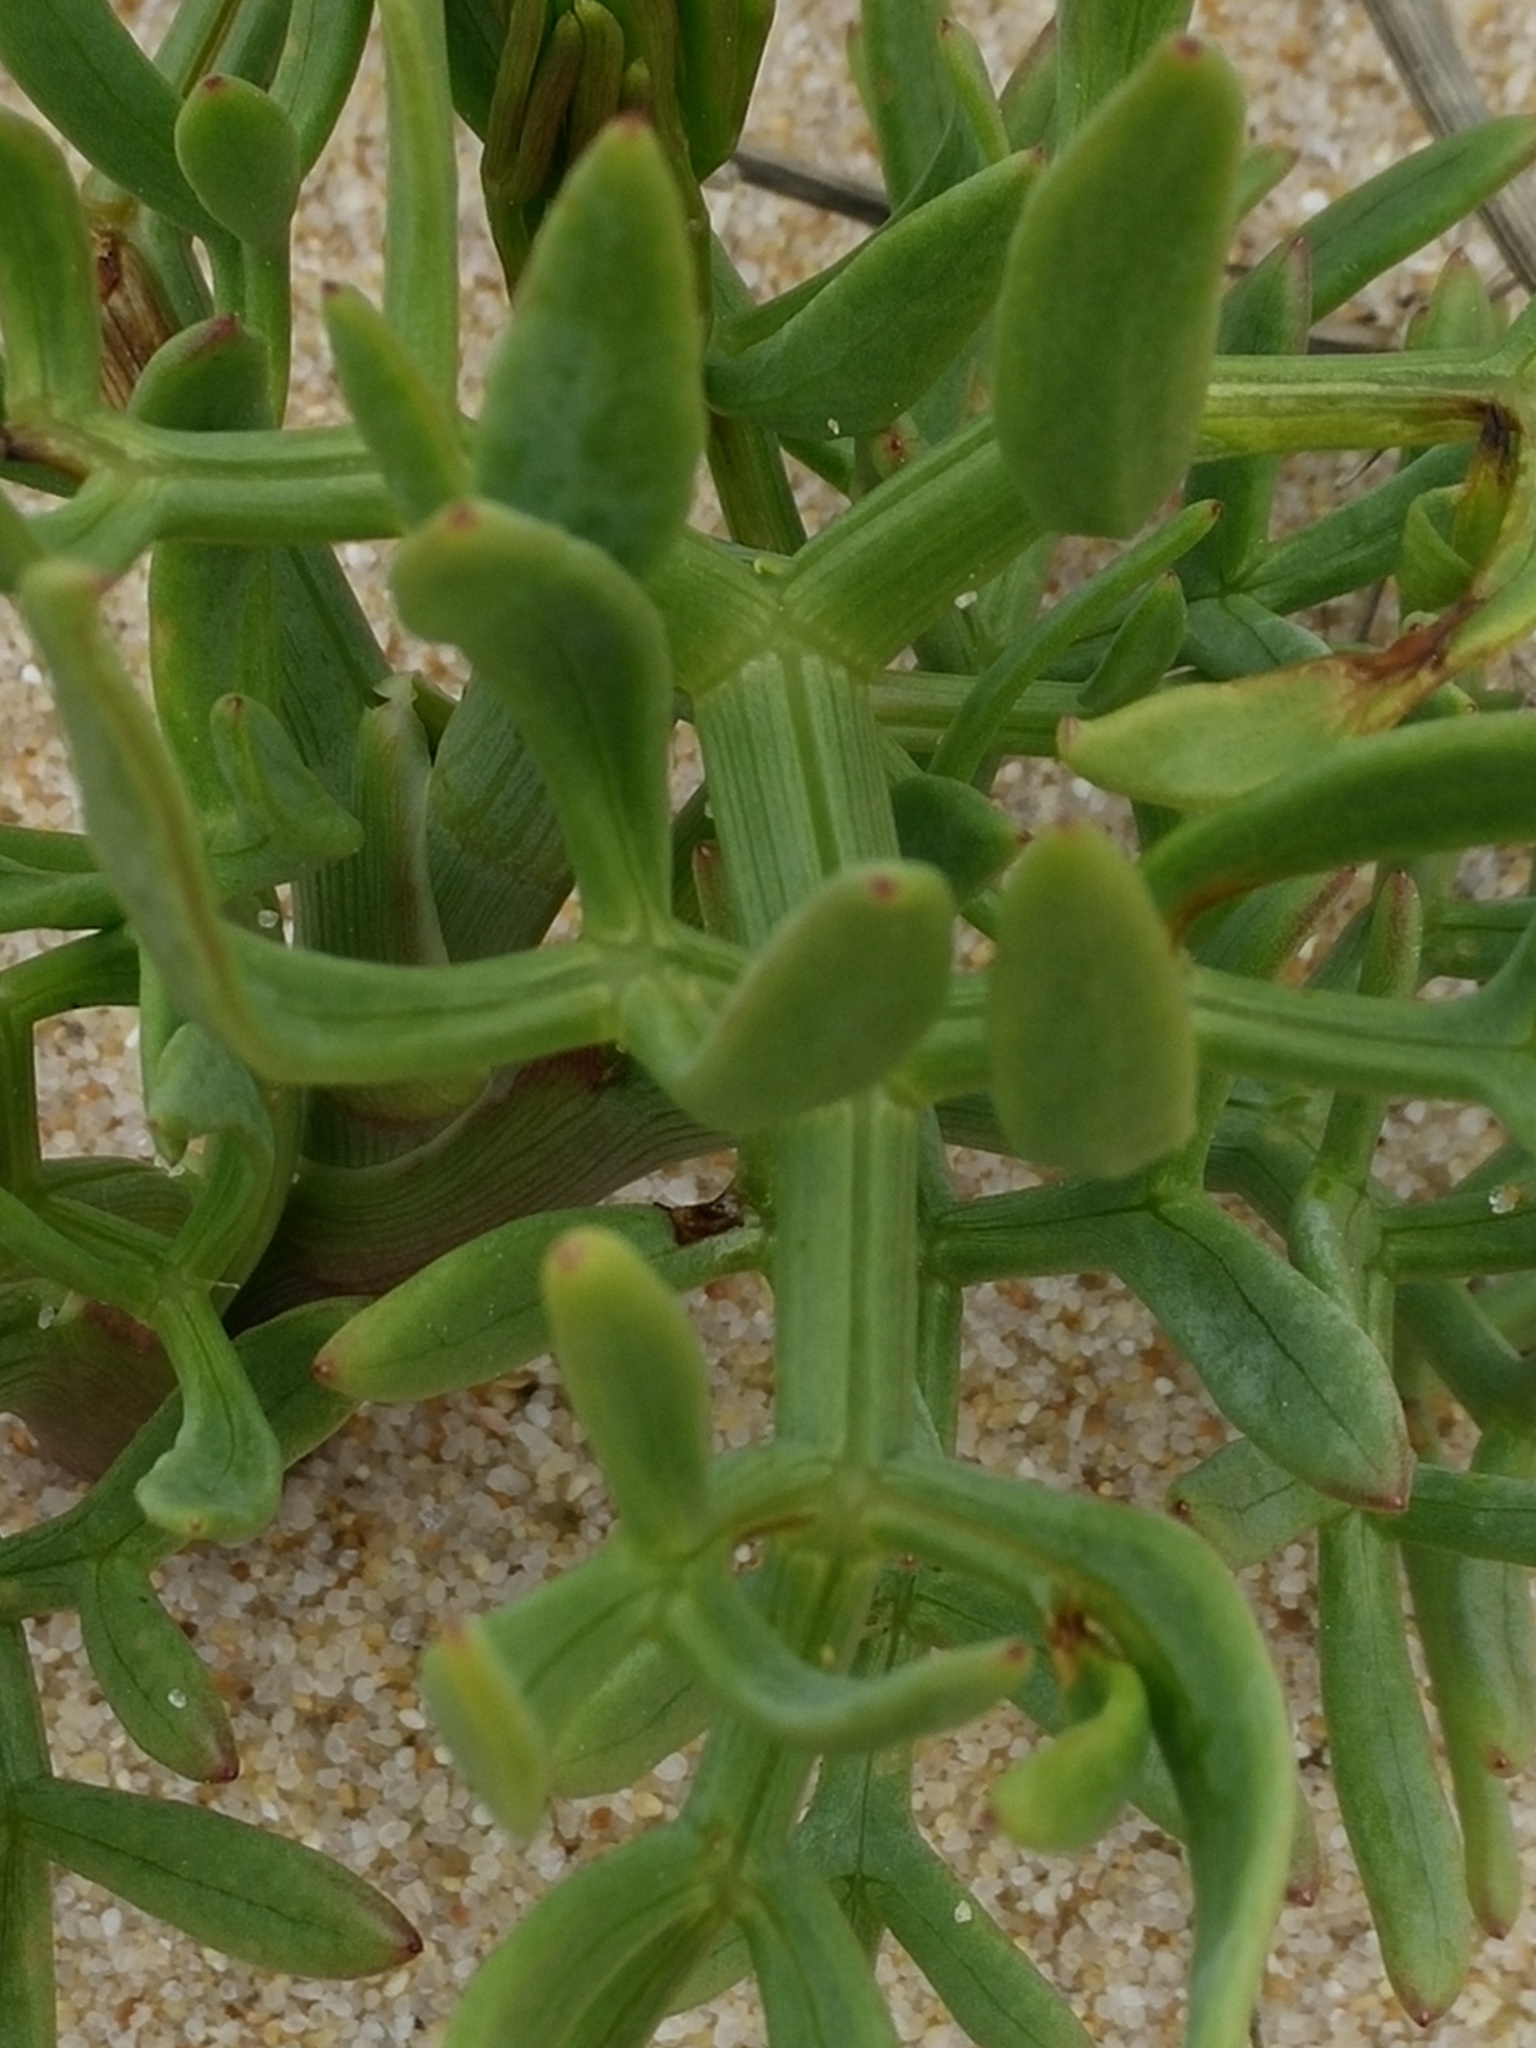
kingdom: Plantae
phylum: Tracheophyta
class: Magnoliopsida
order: Brassicales
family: Brassicaceae
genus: Cakile
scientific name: Cakile maritima
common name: Sea rocket
